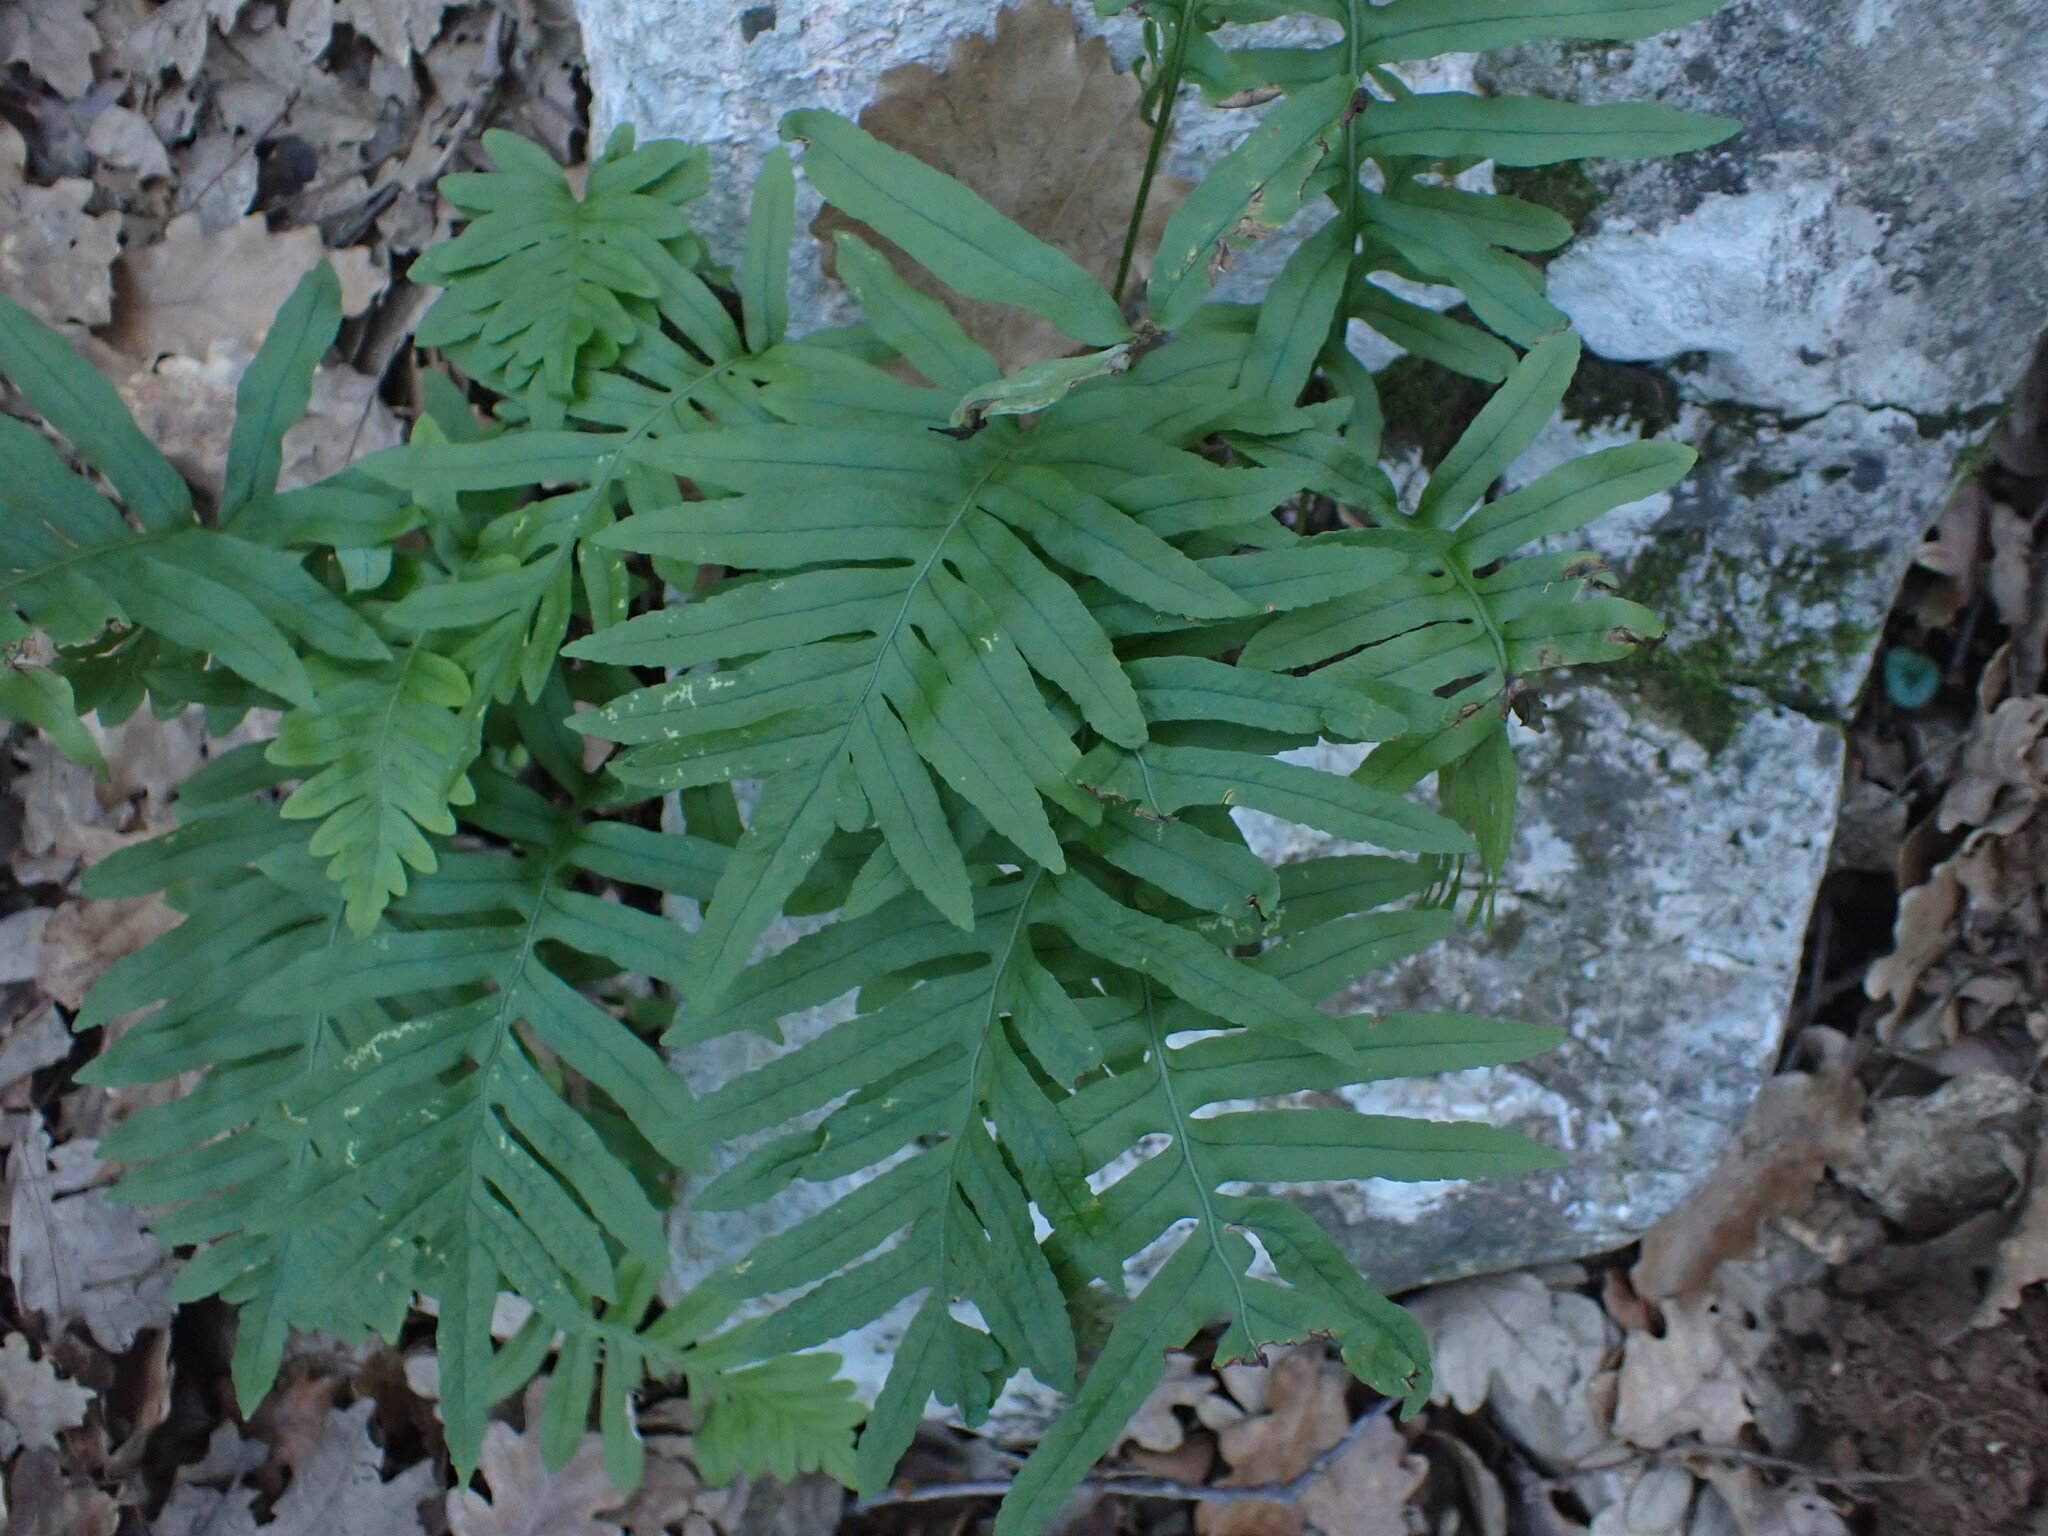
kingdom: Plantae
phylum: Tracheophyta
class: Polypodiopsida
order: Polypodiales
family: Polypodiaceae
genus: Polypodium
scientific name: Polypodium cambricum
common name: Southern polypody
